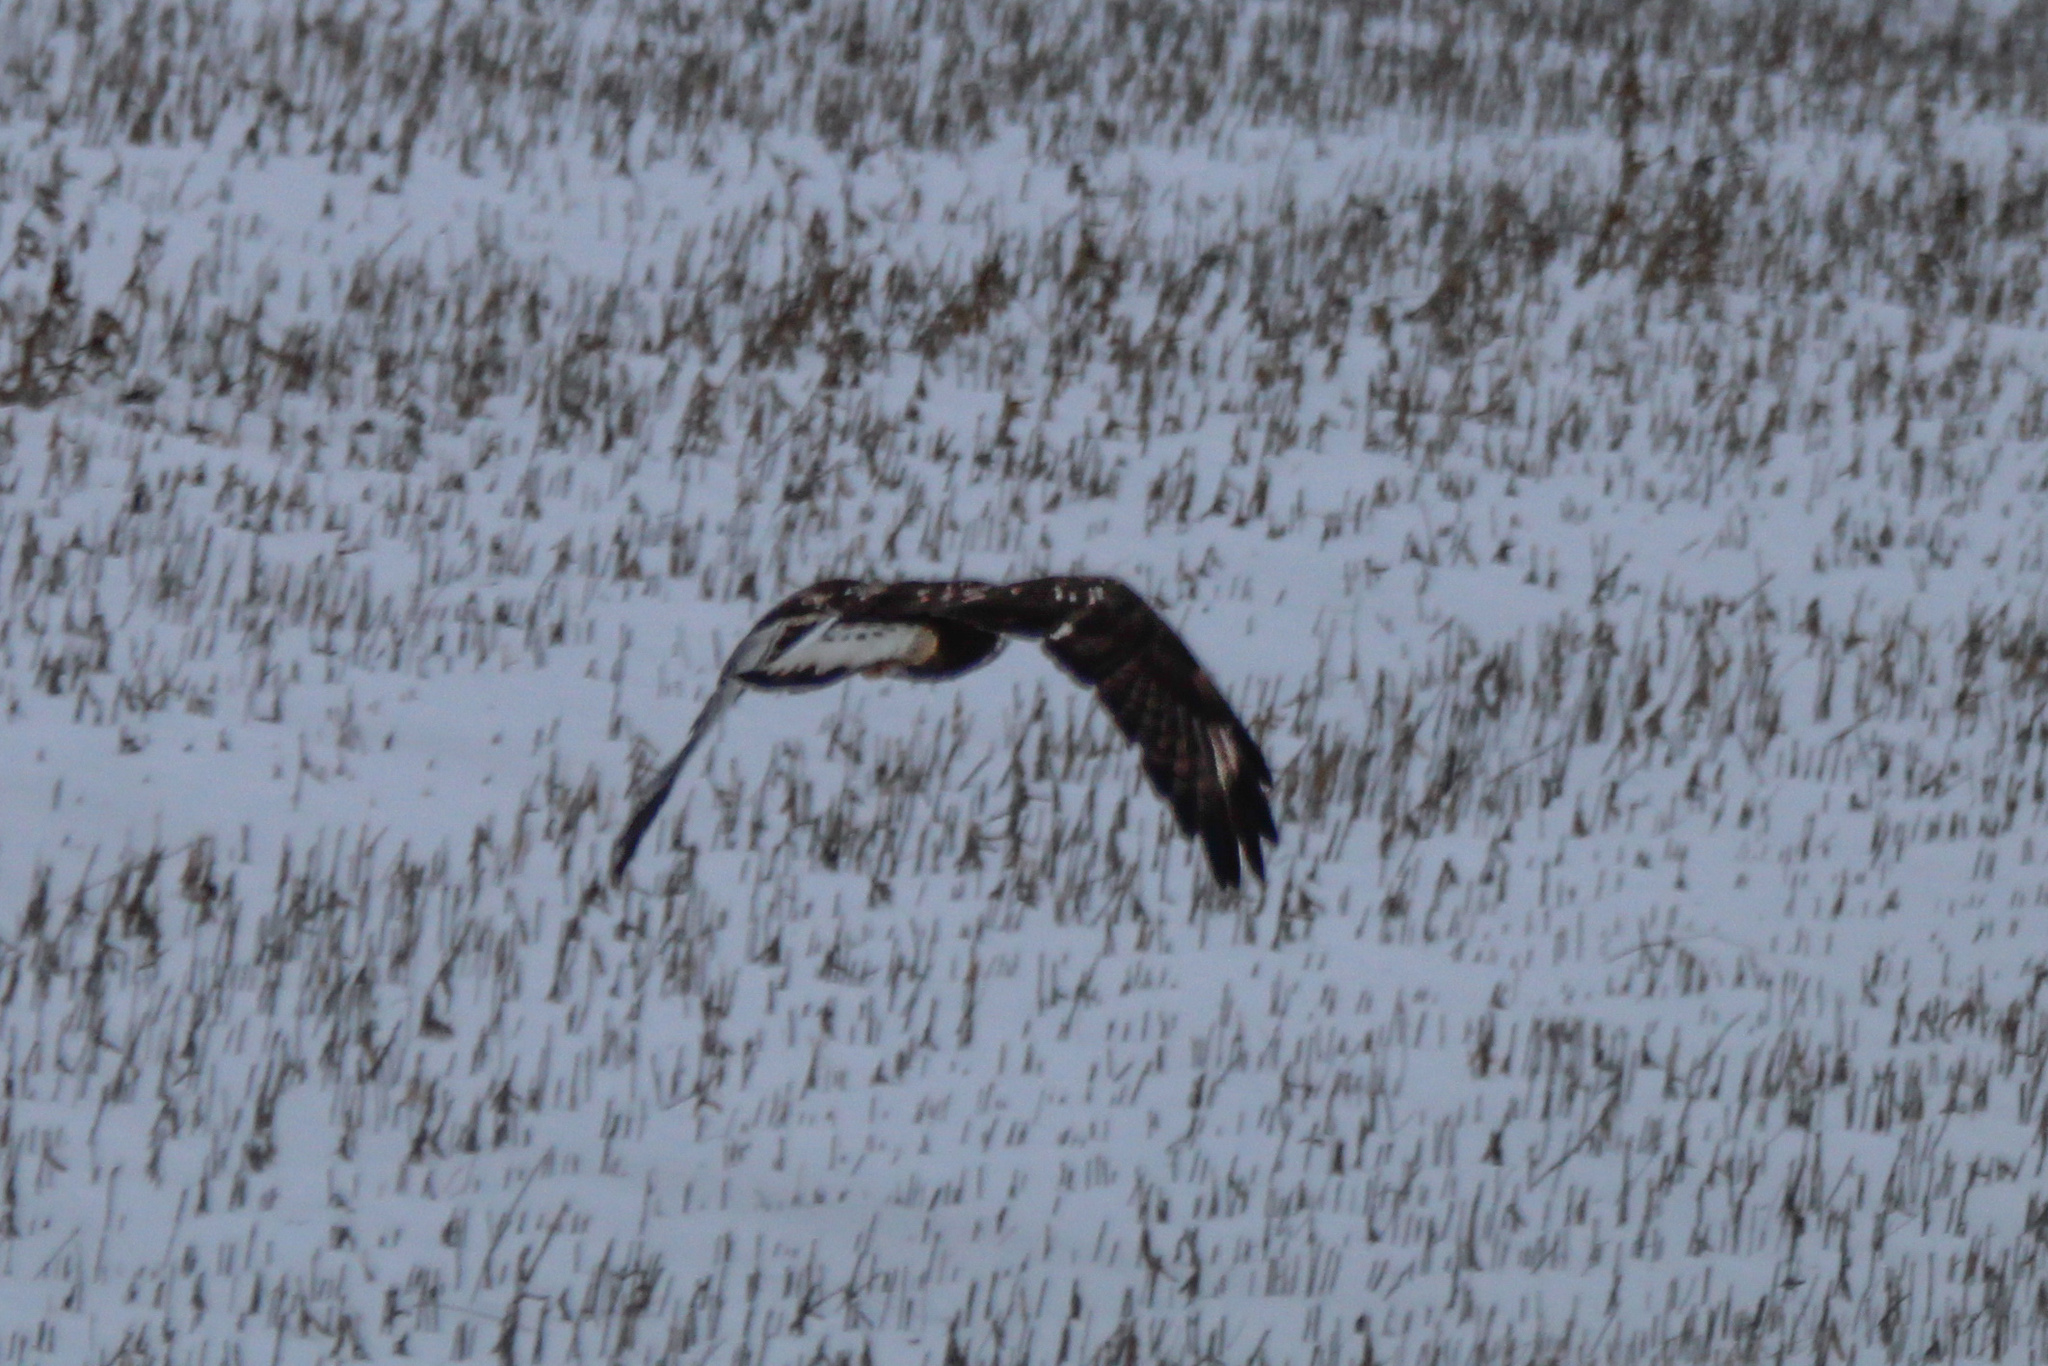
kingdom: Animalia
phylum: Chordata
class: Aves
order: Accipitriformes
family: Accipitridae
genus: Buteo
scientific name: Buteo lagopus
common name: Rough-legged buzzard
